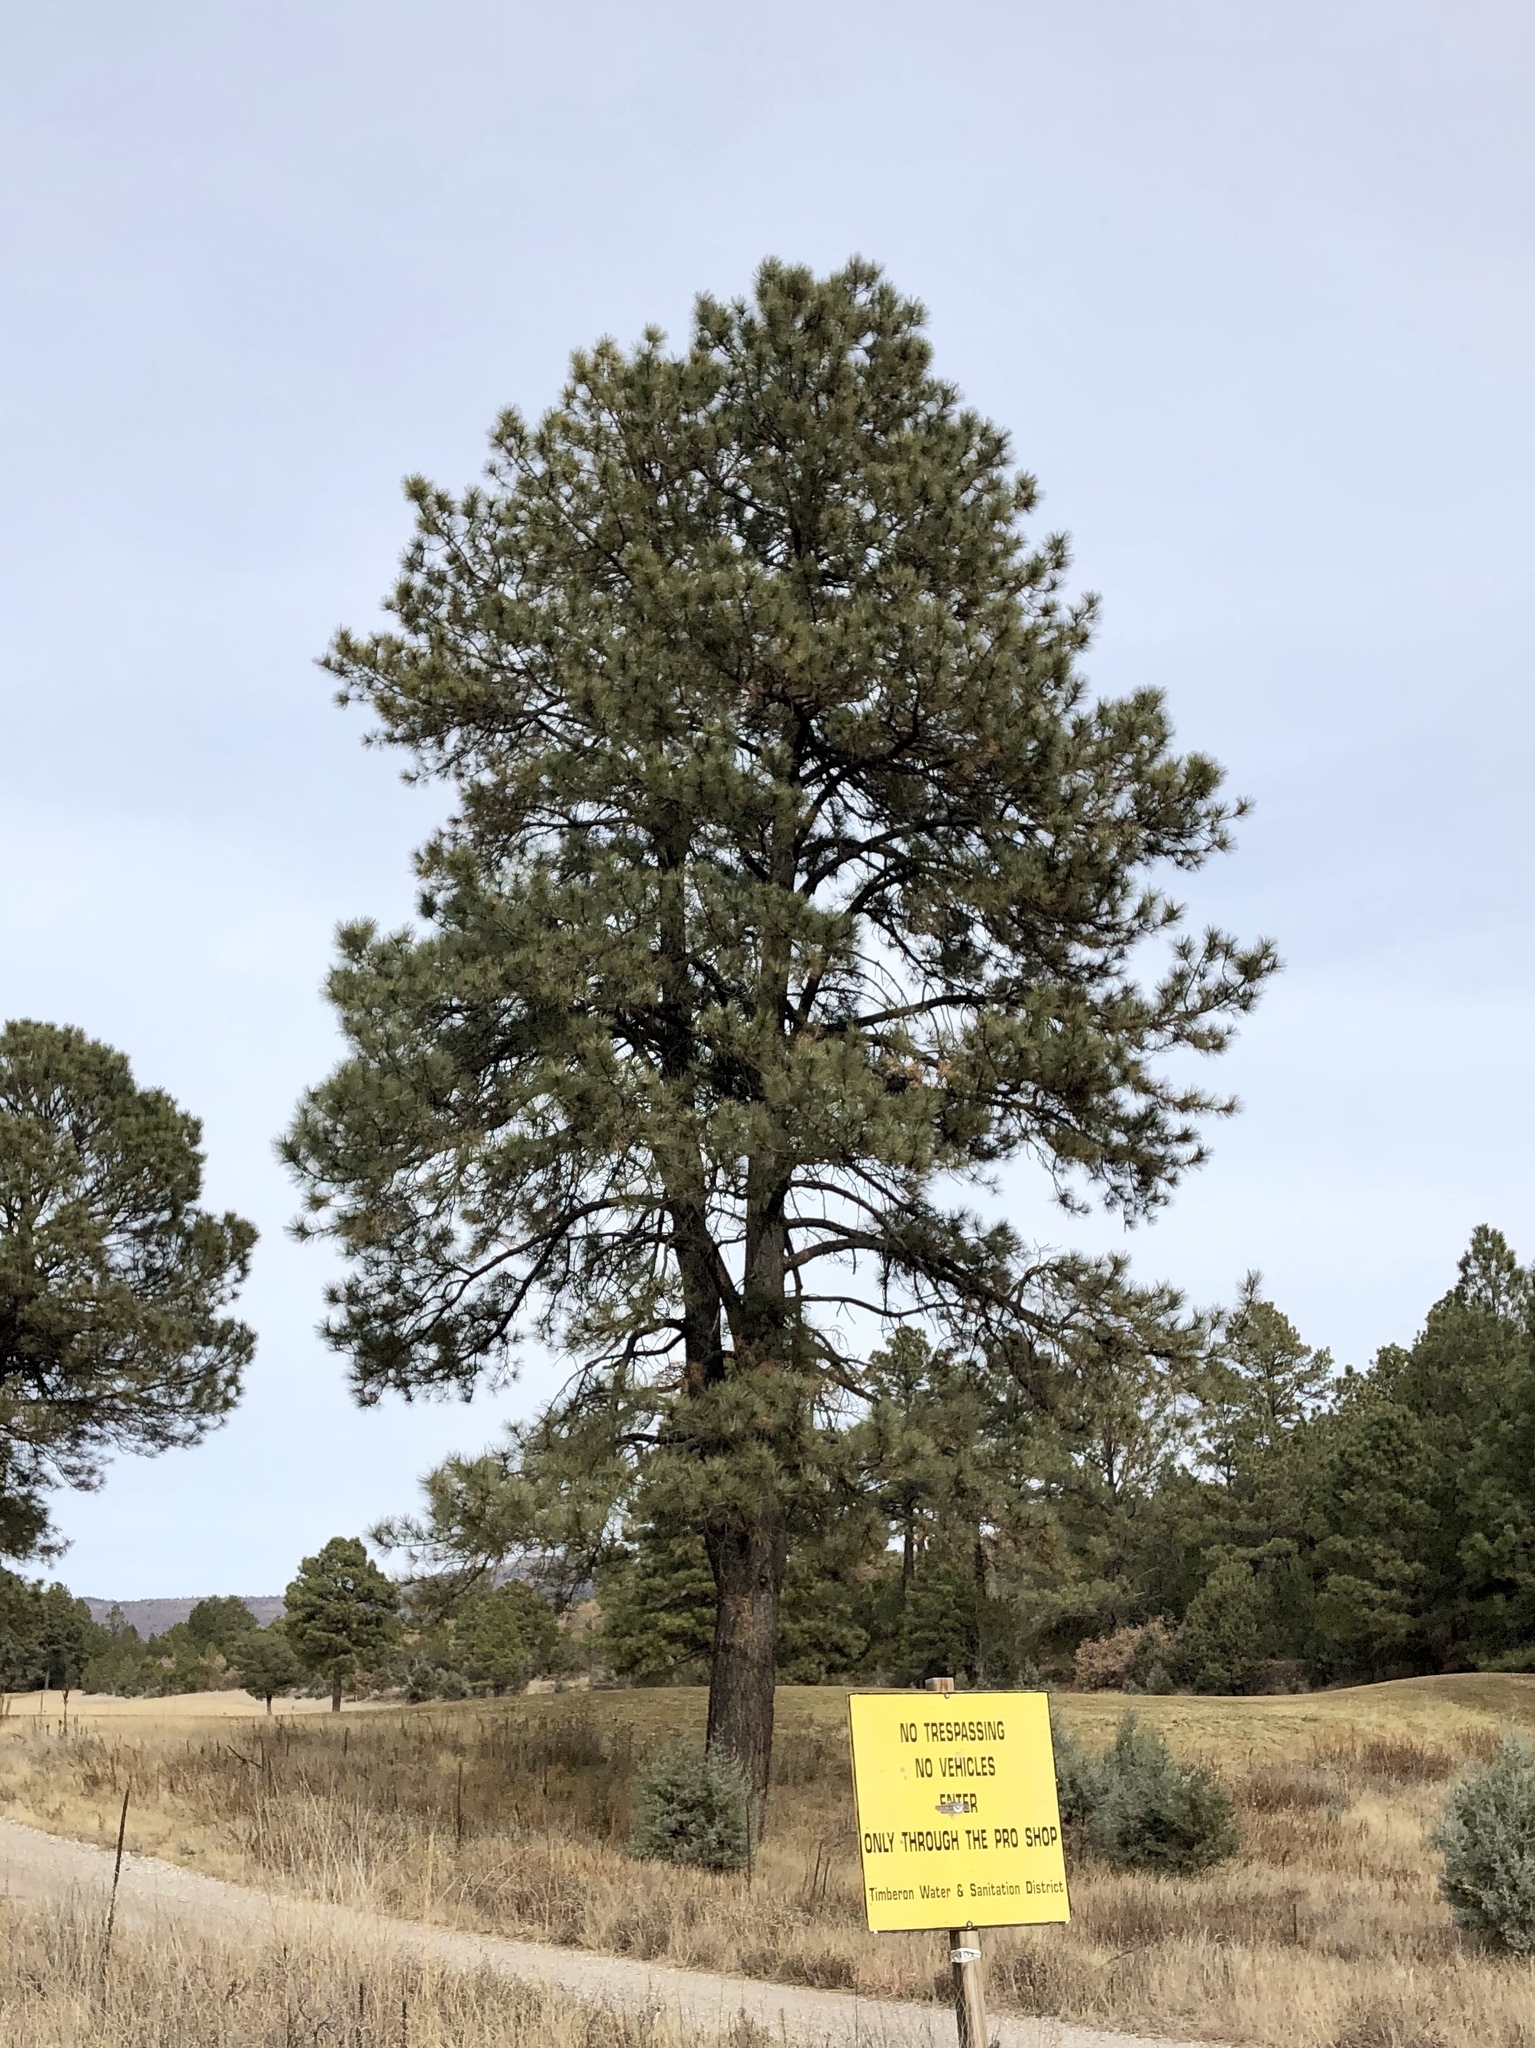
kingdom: Plantae
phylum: Tracheophyta
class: Pinopsida
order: Pinales
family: Pinaceae
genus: Pinus
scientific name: Pinus ponderosa
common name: Western yellow-pine
